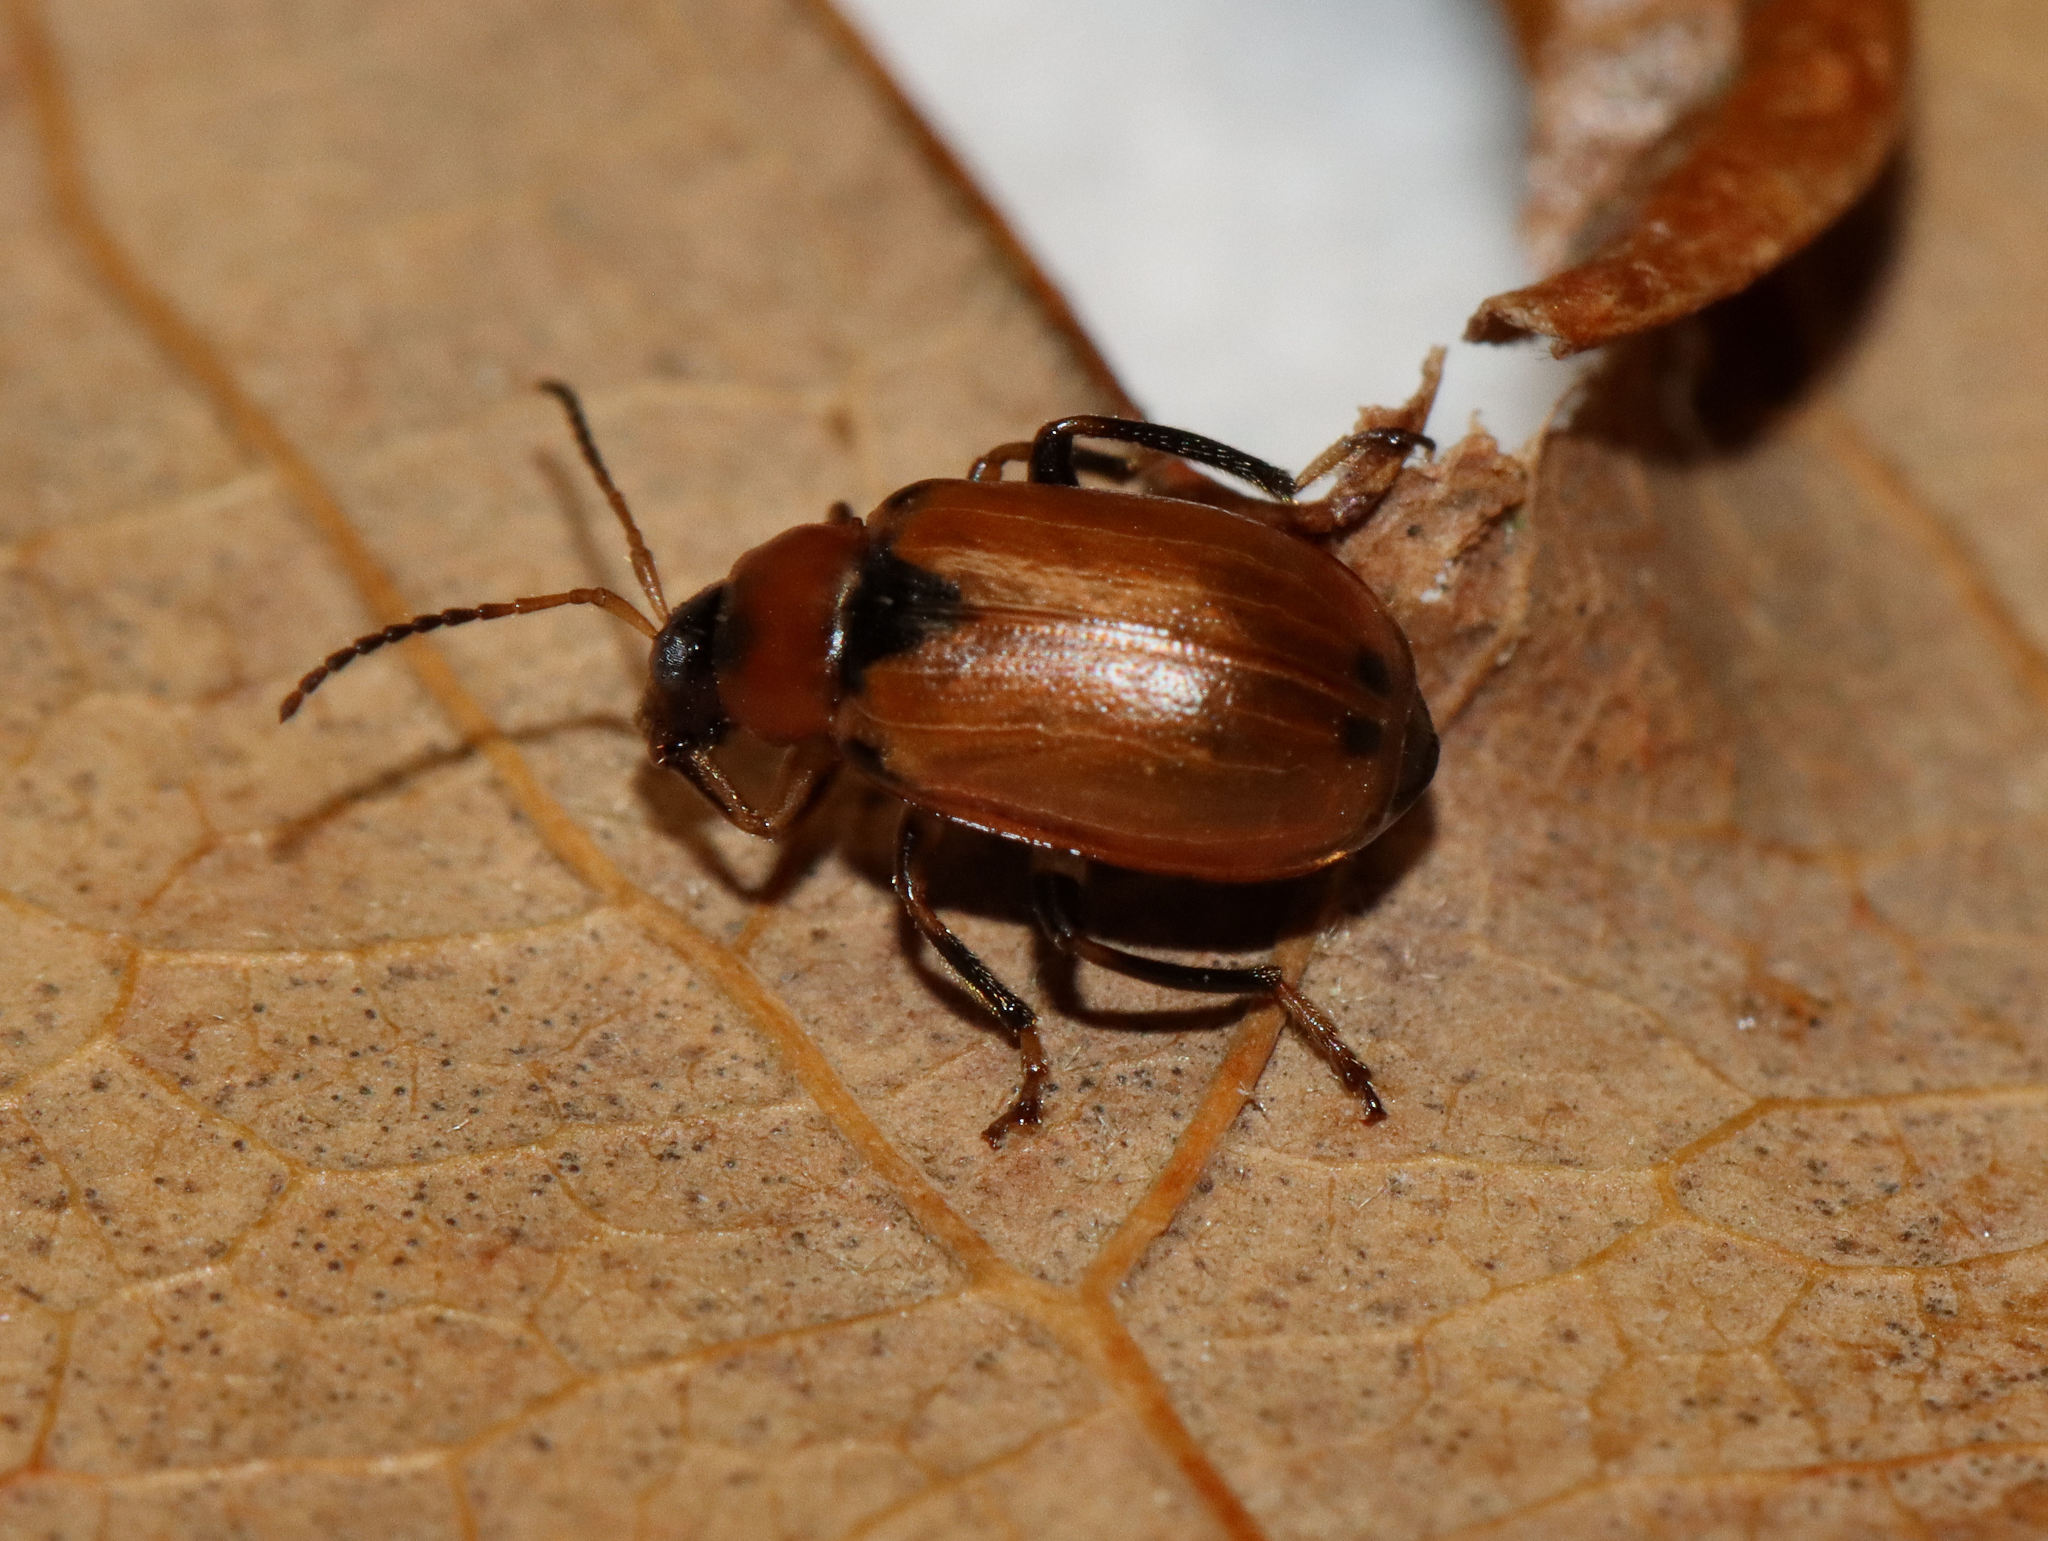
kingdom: Animalia
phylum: Arthropoda
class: Insecta
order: Coleoptera
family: Chrysomelidae
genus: Cerotoma
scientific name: Cerotoma trifurcata
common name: Bean leaf beetle
